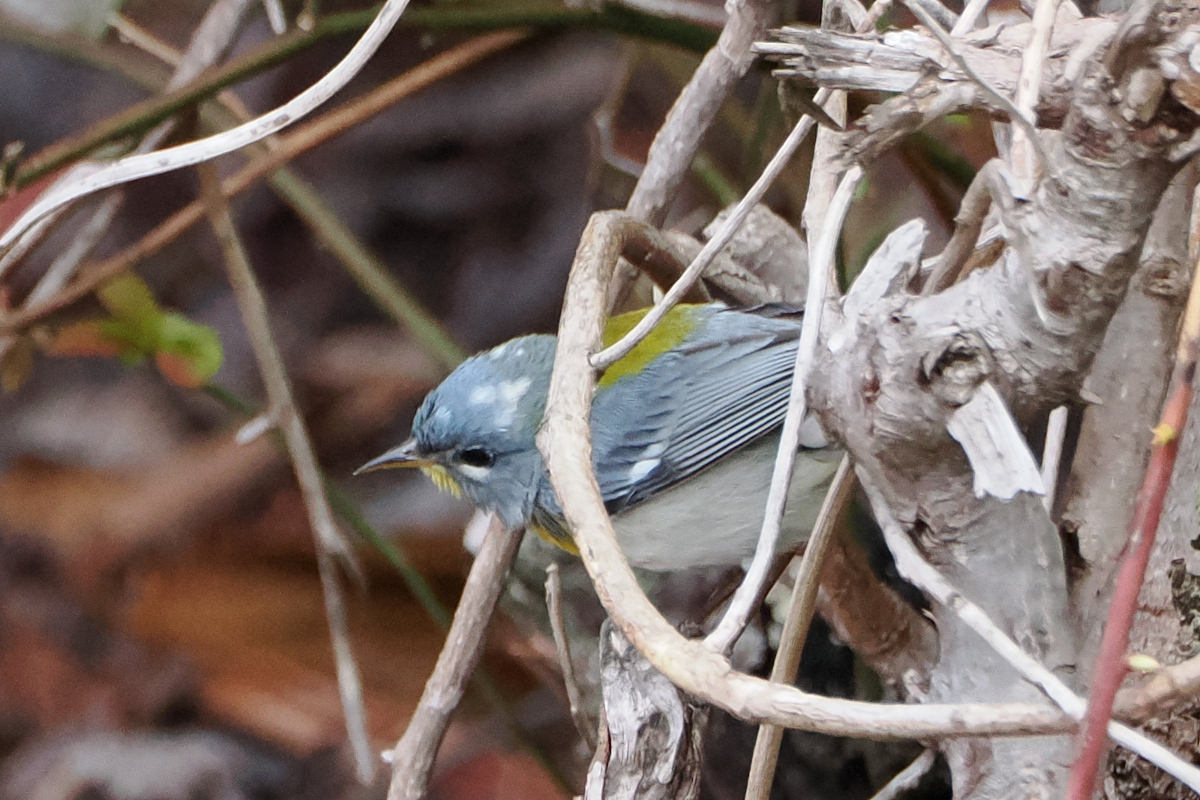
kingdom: Animalia
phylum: Chordata
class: Aves
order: Passeriformes
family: Parulidae
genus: Setophaga
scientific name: Setophaga americana
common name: Northern parula
